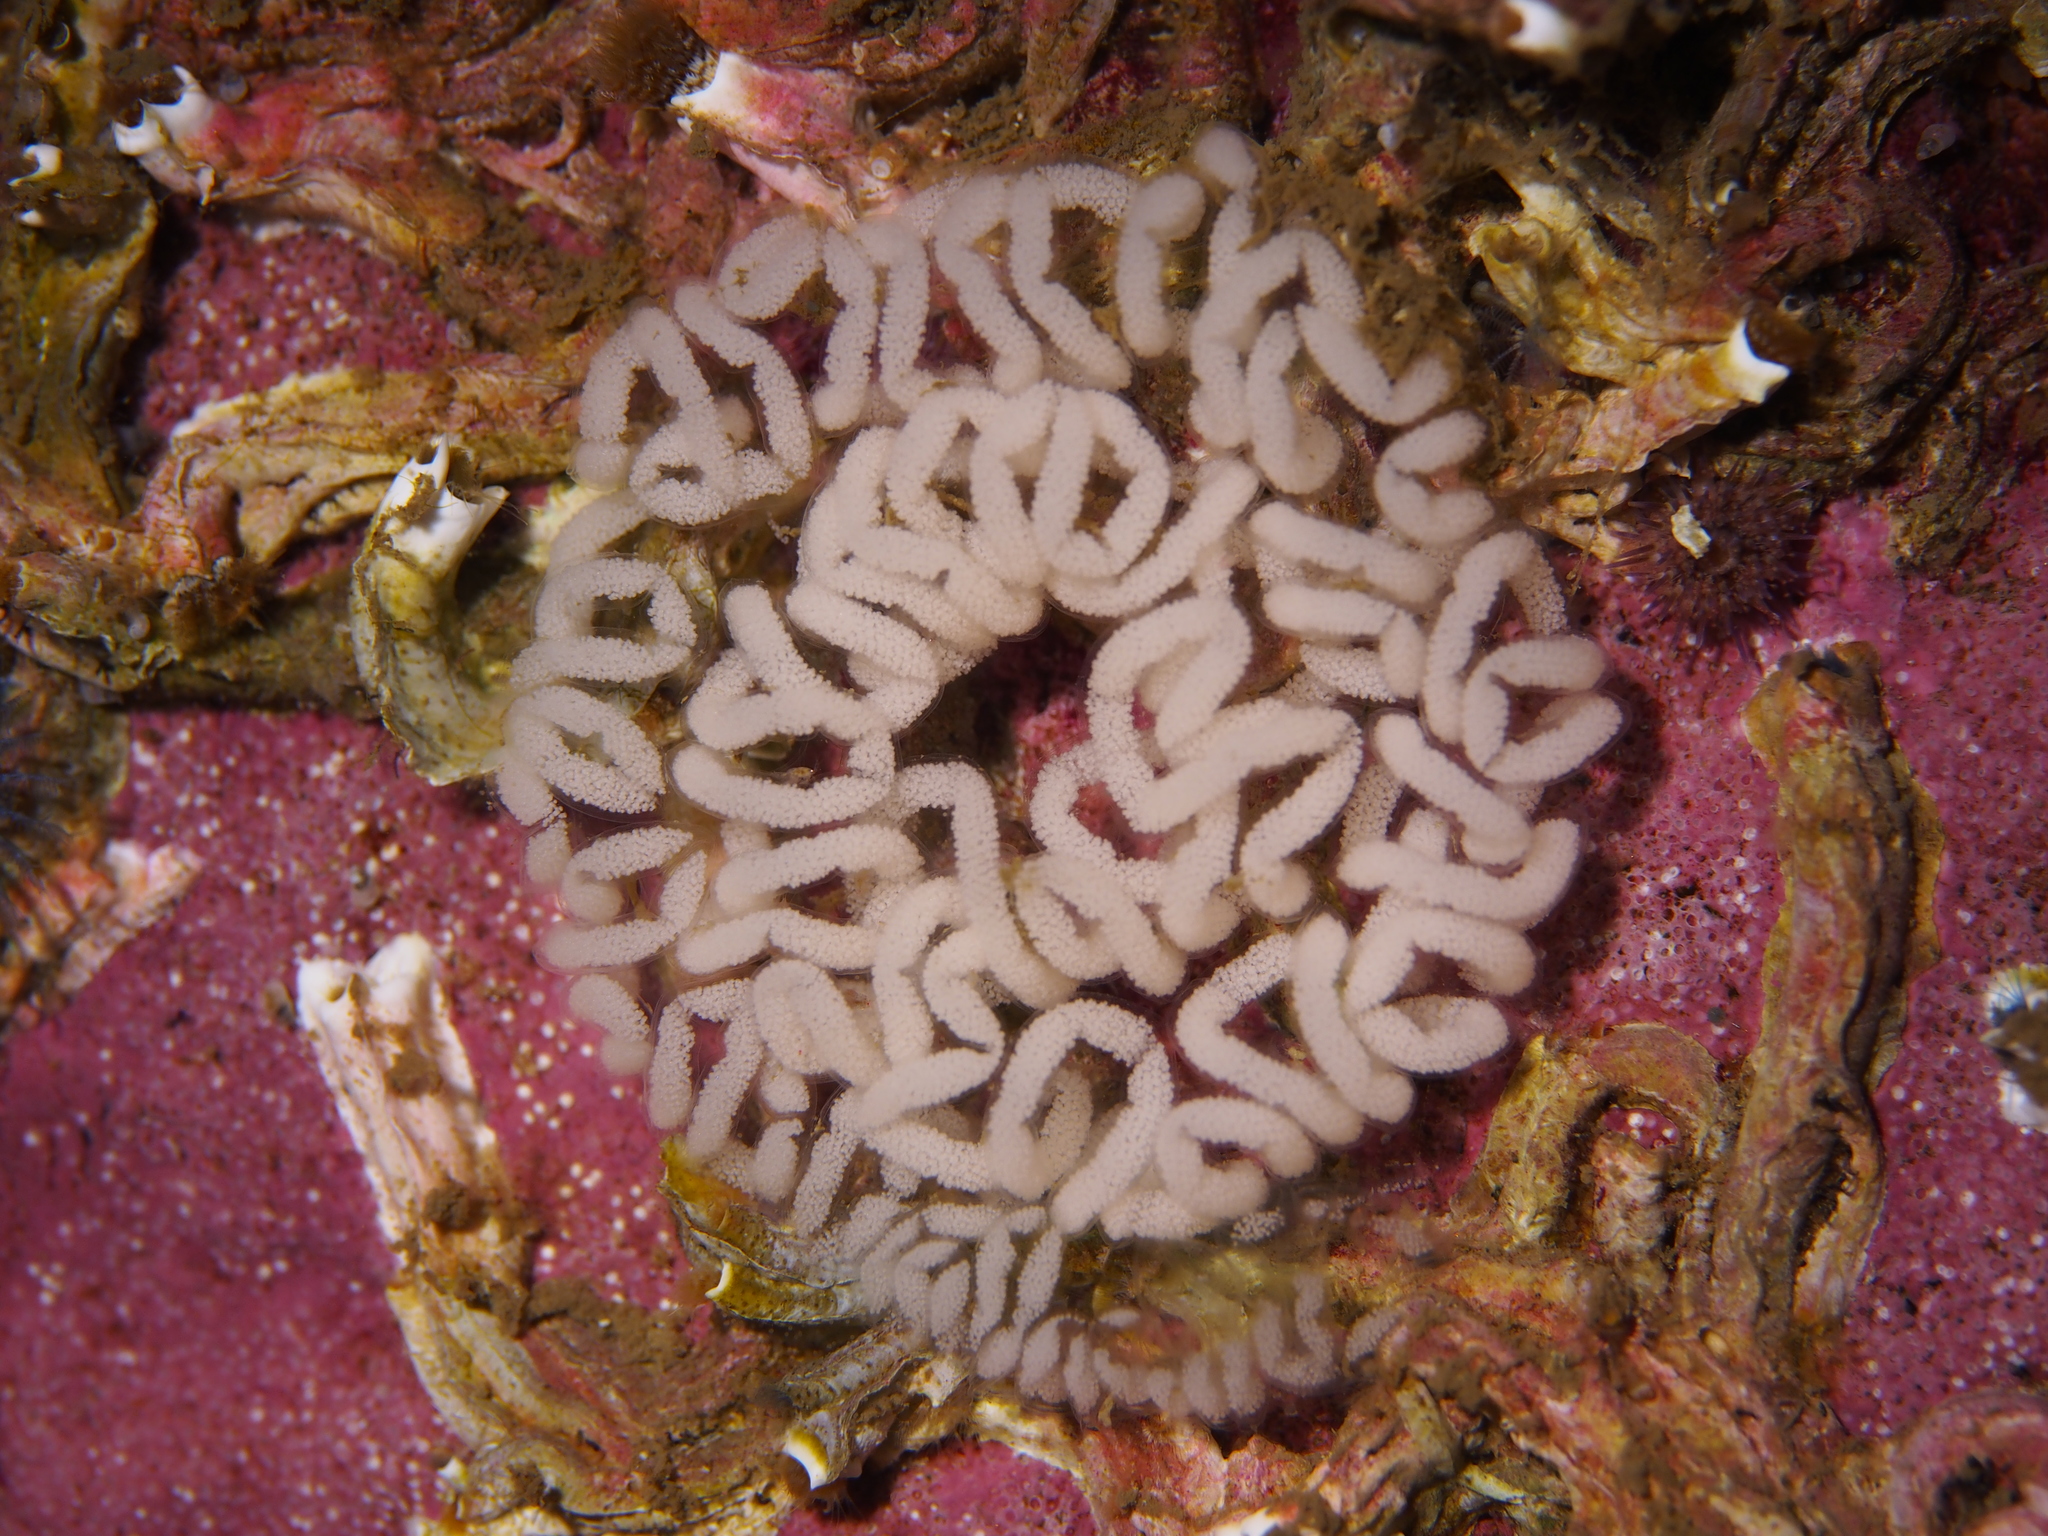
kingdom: Animalia
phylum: Mollusca
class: Gastropoda
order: Nudibranchia
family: Tritoniidae
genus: Tritonia
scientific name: Tritonia hombergii
